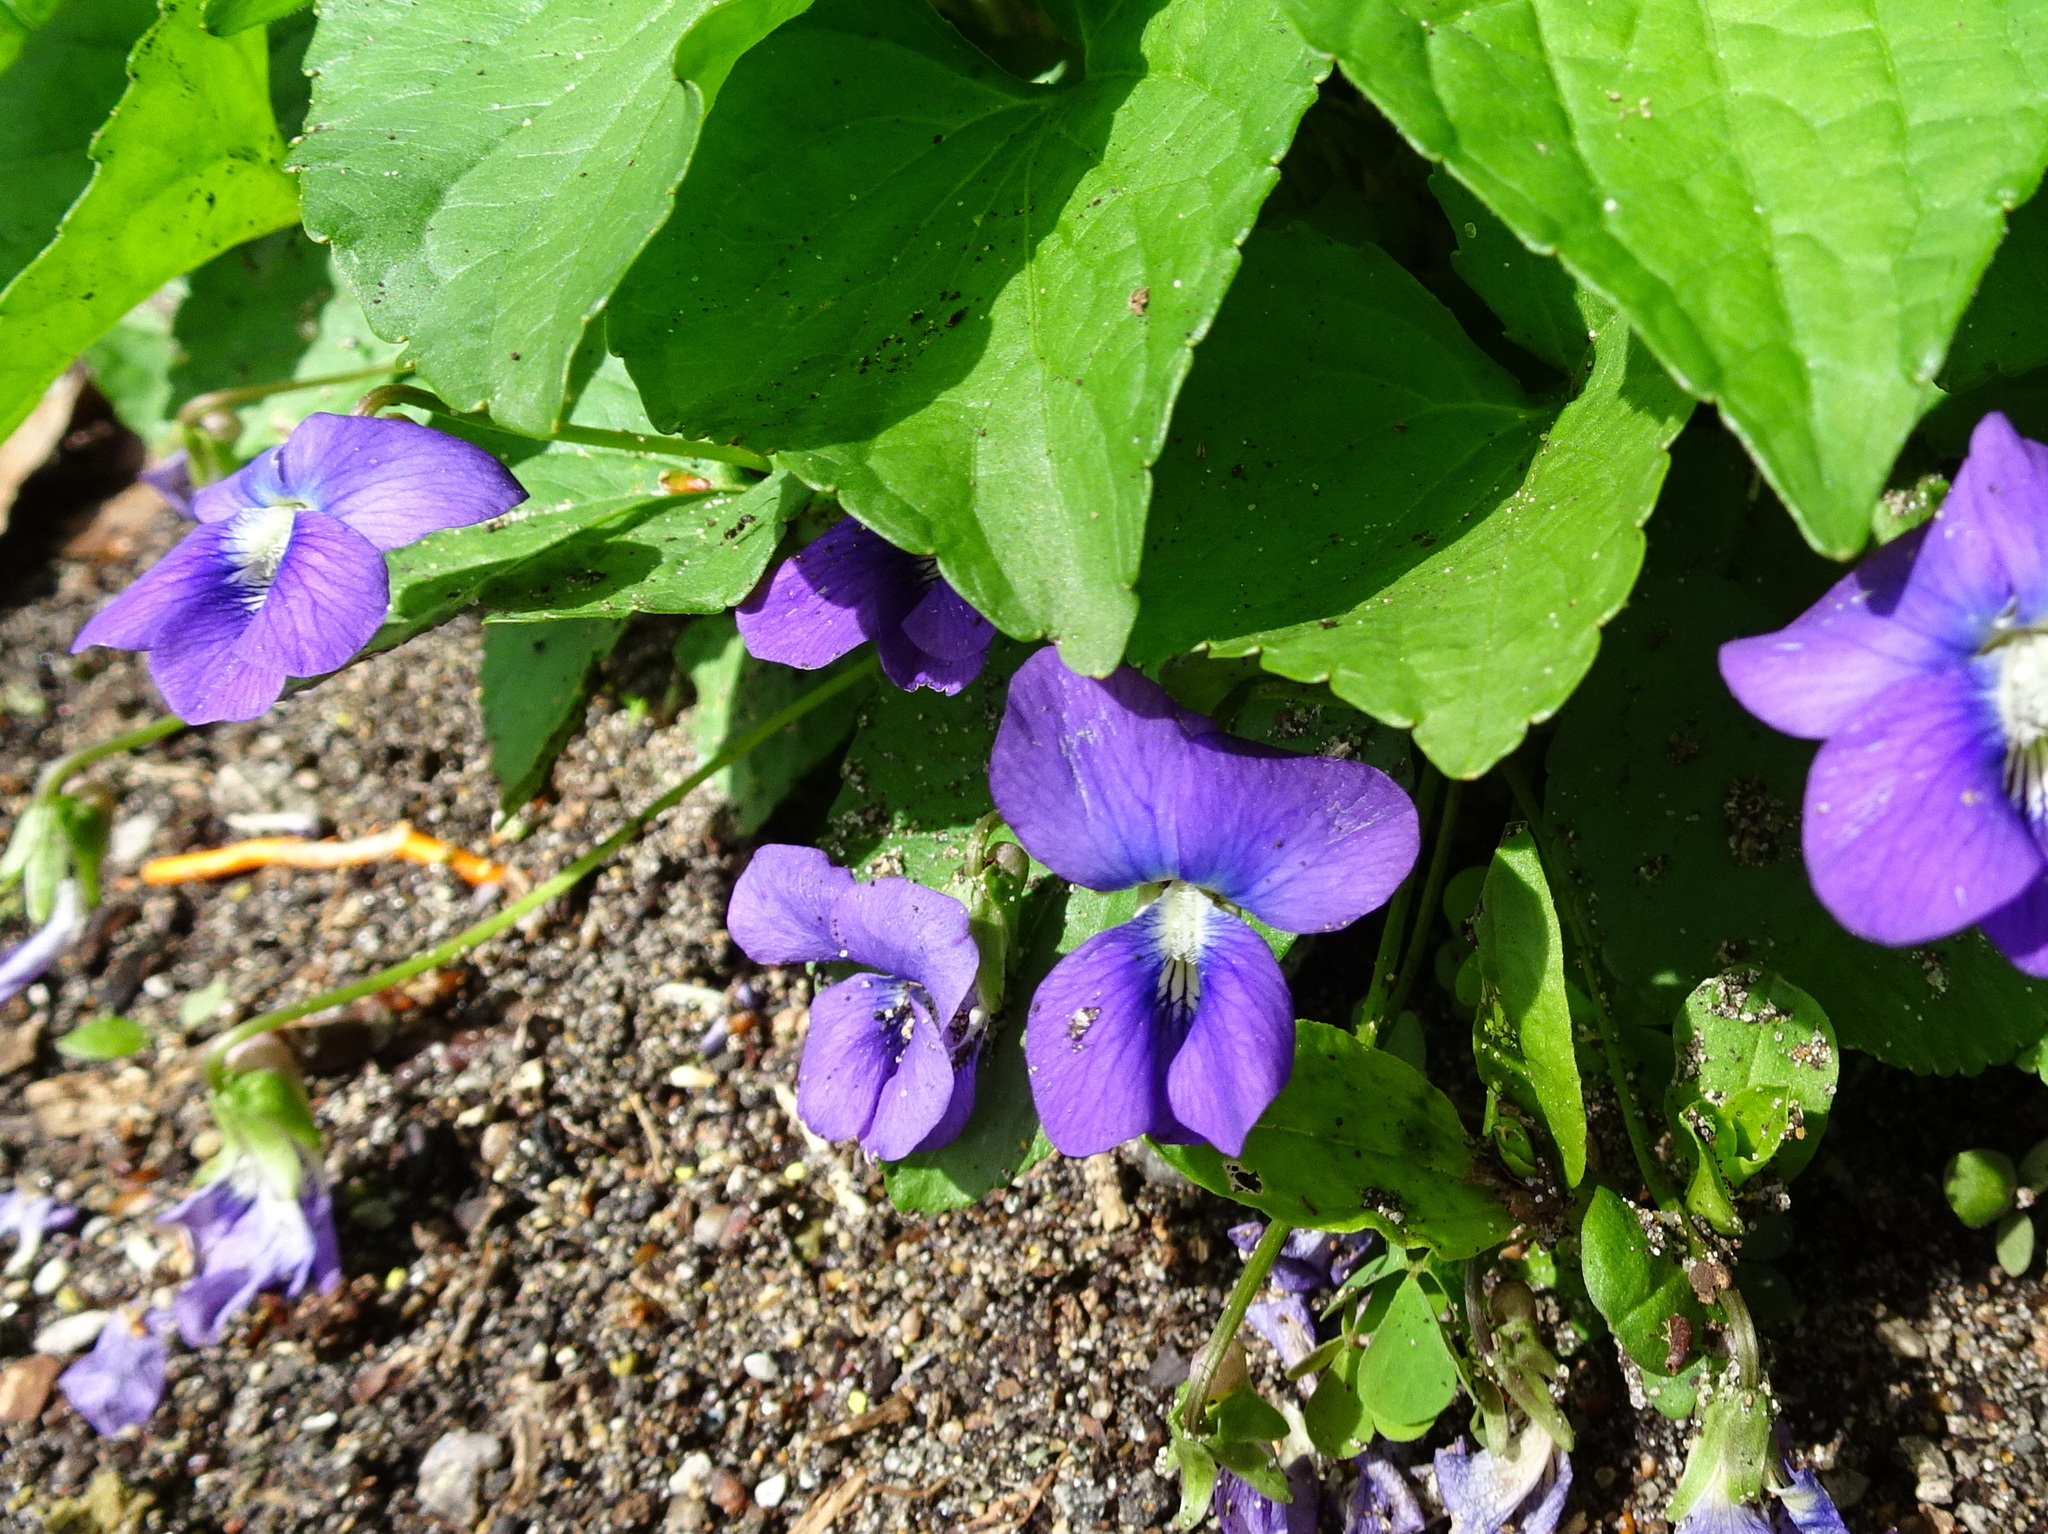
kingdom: Plantae
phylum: Tracheophyta
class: Magnoliopsida
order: Malpighiales
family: Violaceae
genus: Viola
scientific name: Viola sororia
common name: Dooryard violet
